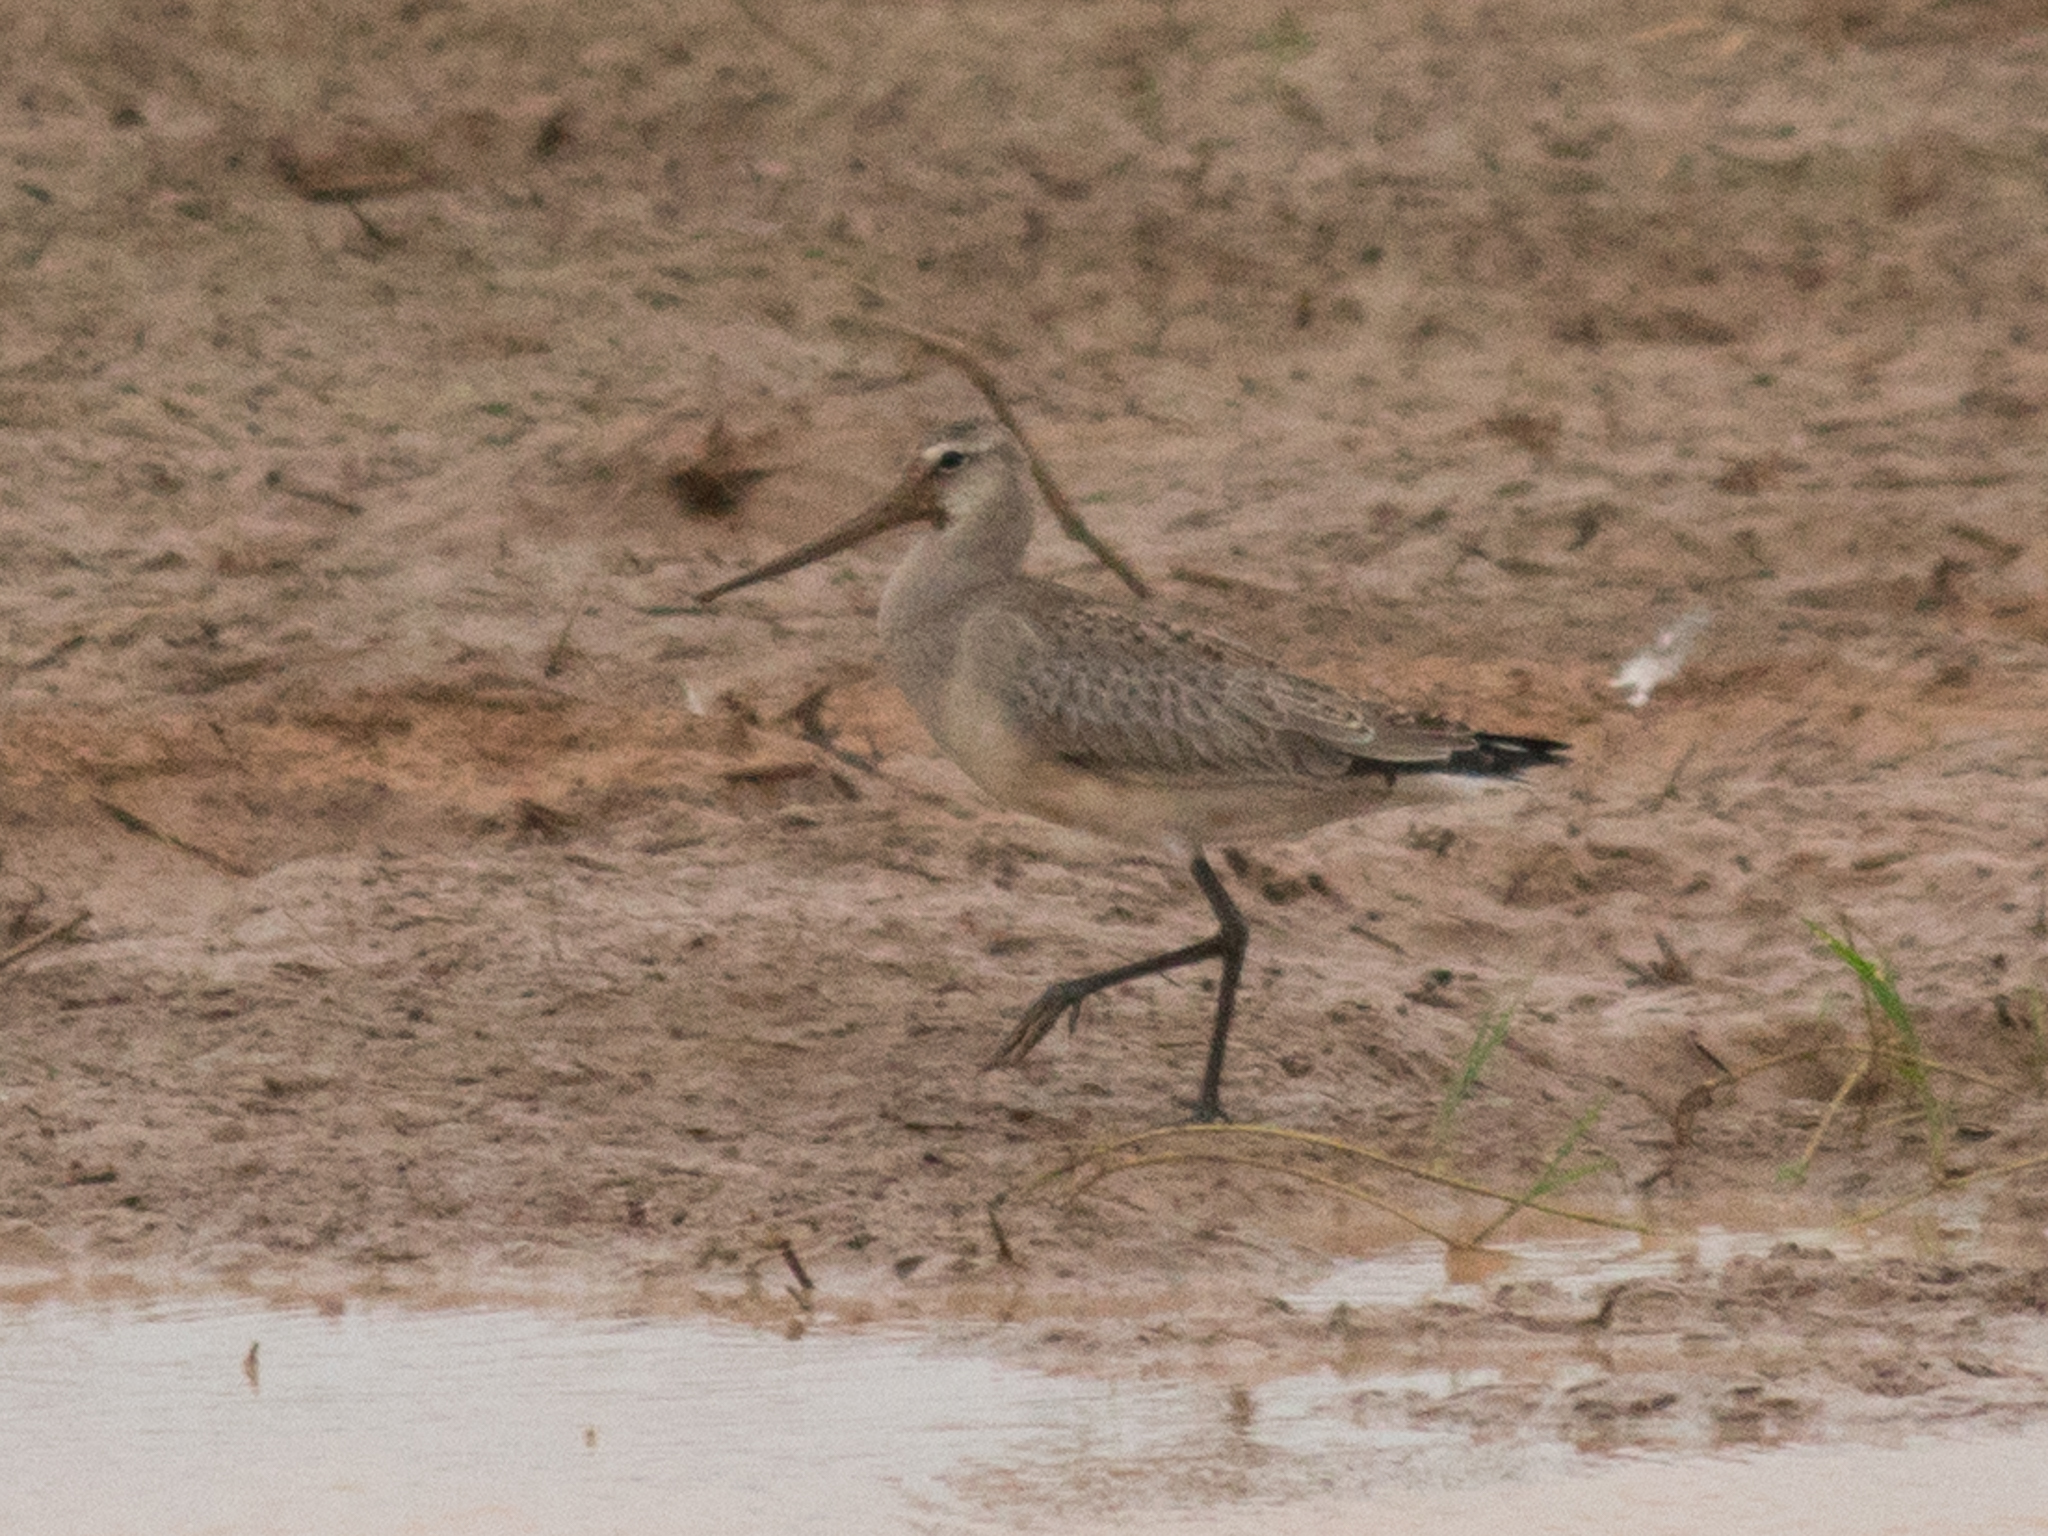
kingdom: Animalia
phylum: Chordata
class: Aves
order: Charadriiformes
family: Scolopacidae
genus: Limosa
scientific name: Limosa haemastica
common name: Hudsonian godwit
